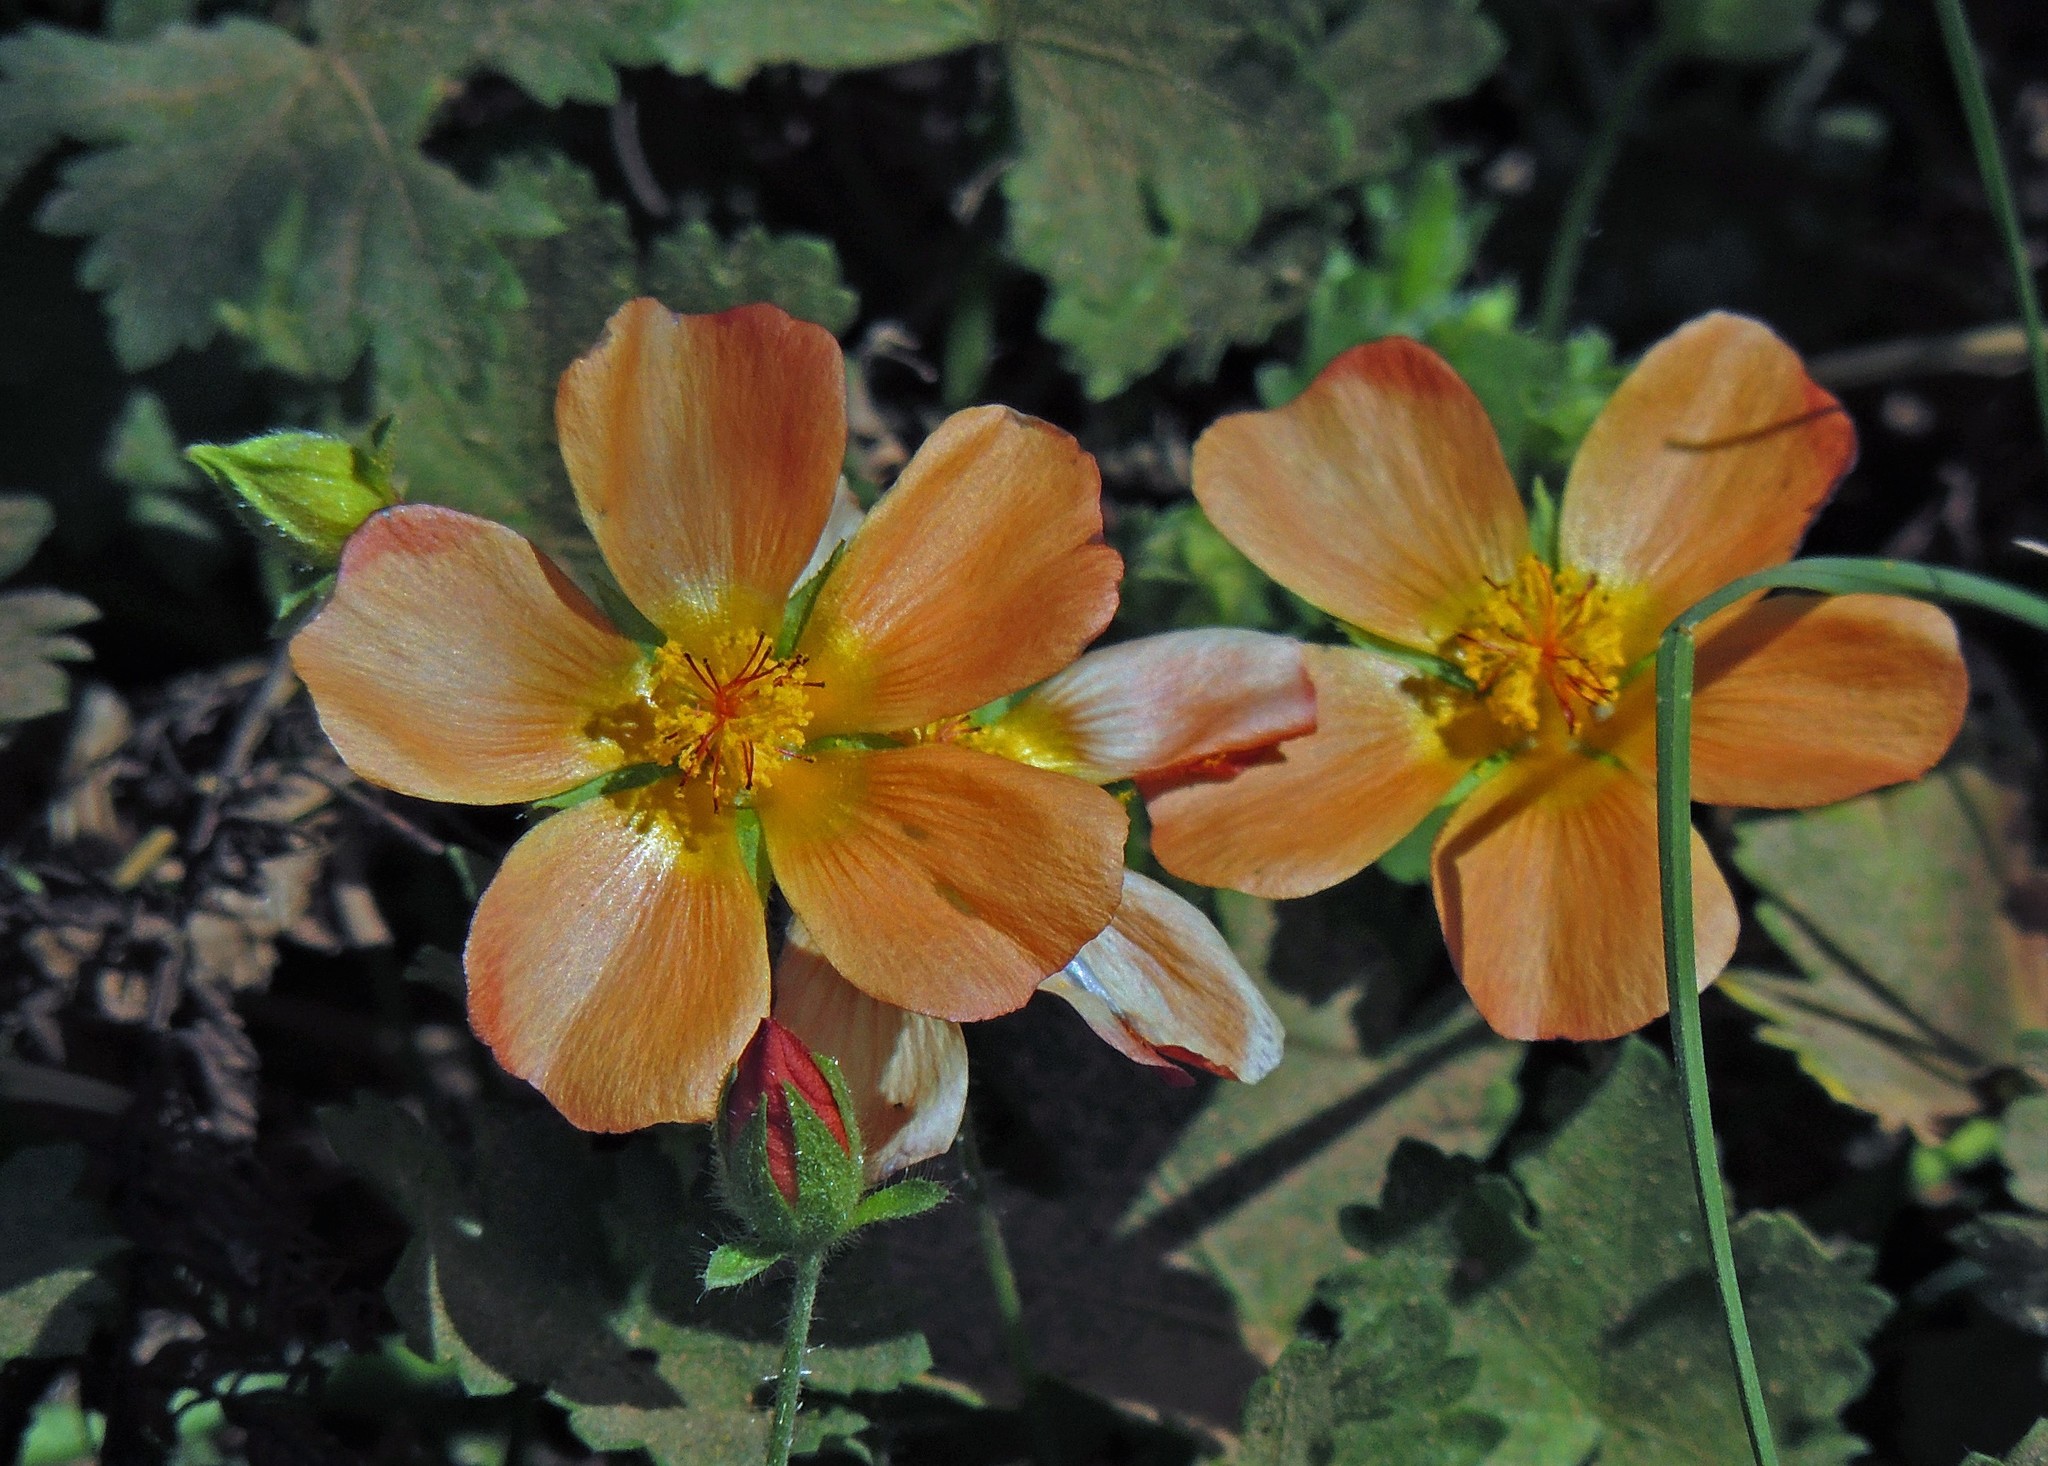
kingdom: Plantae
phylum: Tracheophyta
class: Magnoliopsida
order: Malvales
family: Malvaceae
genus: Modiolastrum
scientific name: Modiolastrum malvifolium
